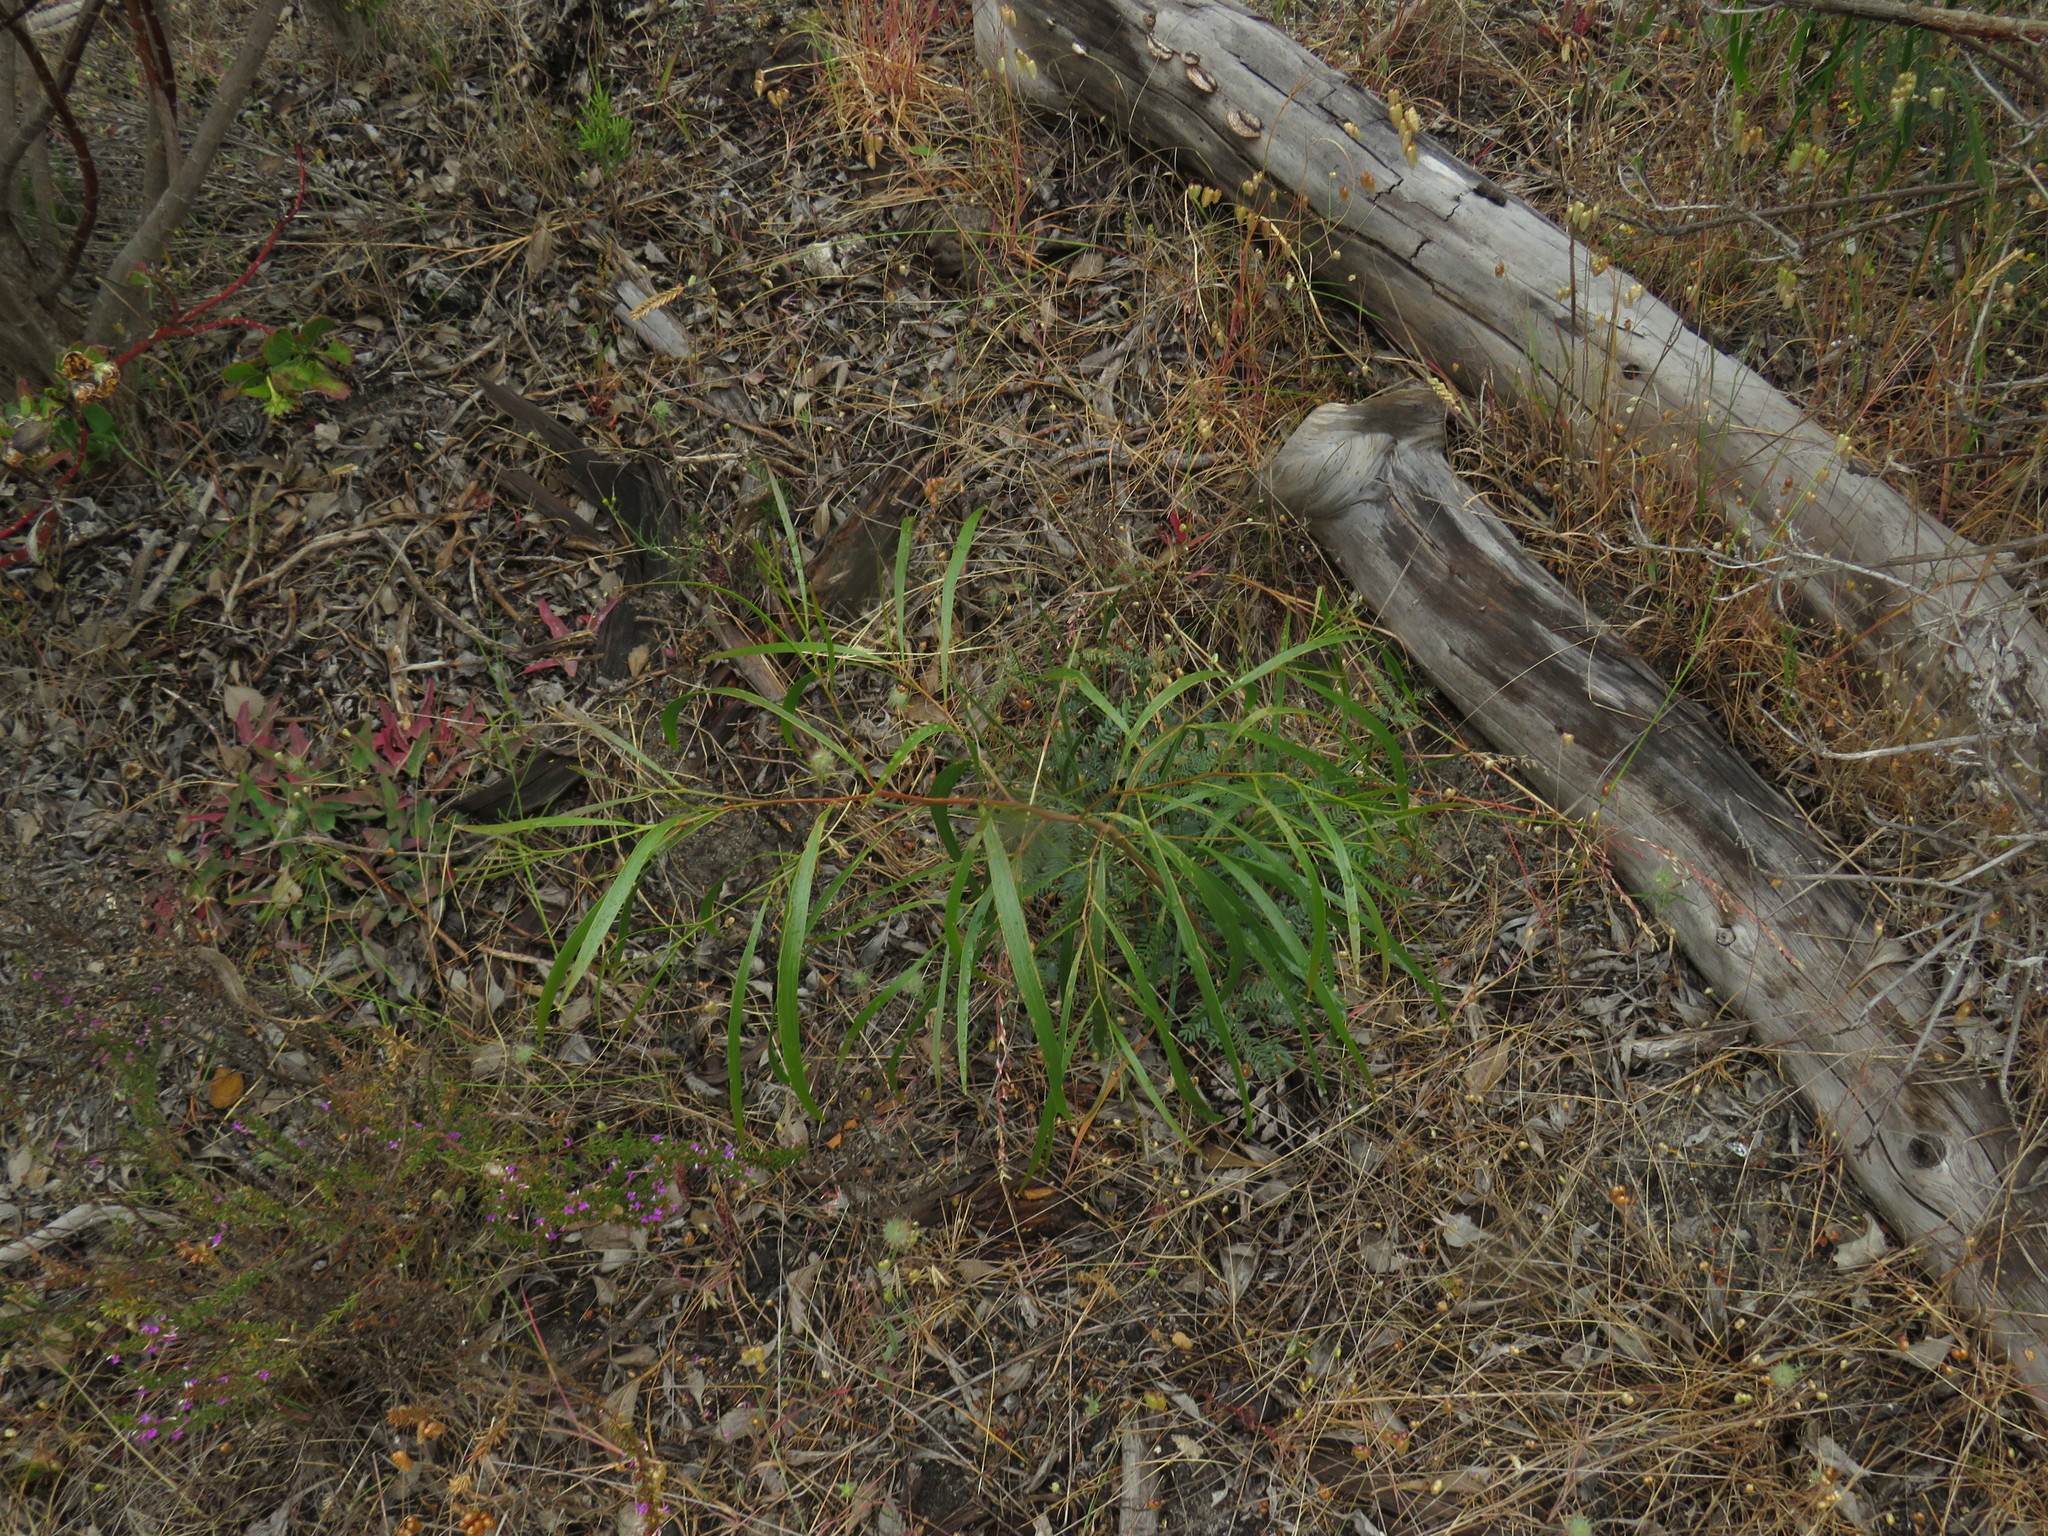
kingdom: Plantae
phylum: Tracheophyta
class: Magnoliopsida
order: Fabales
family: Fabaceae
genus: Acacia
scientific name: Acacia implexa
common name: Black wattle
